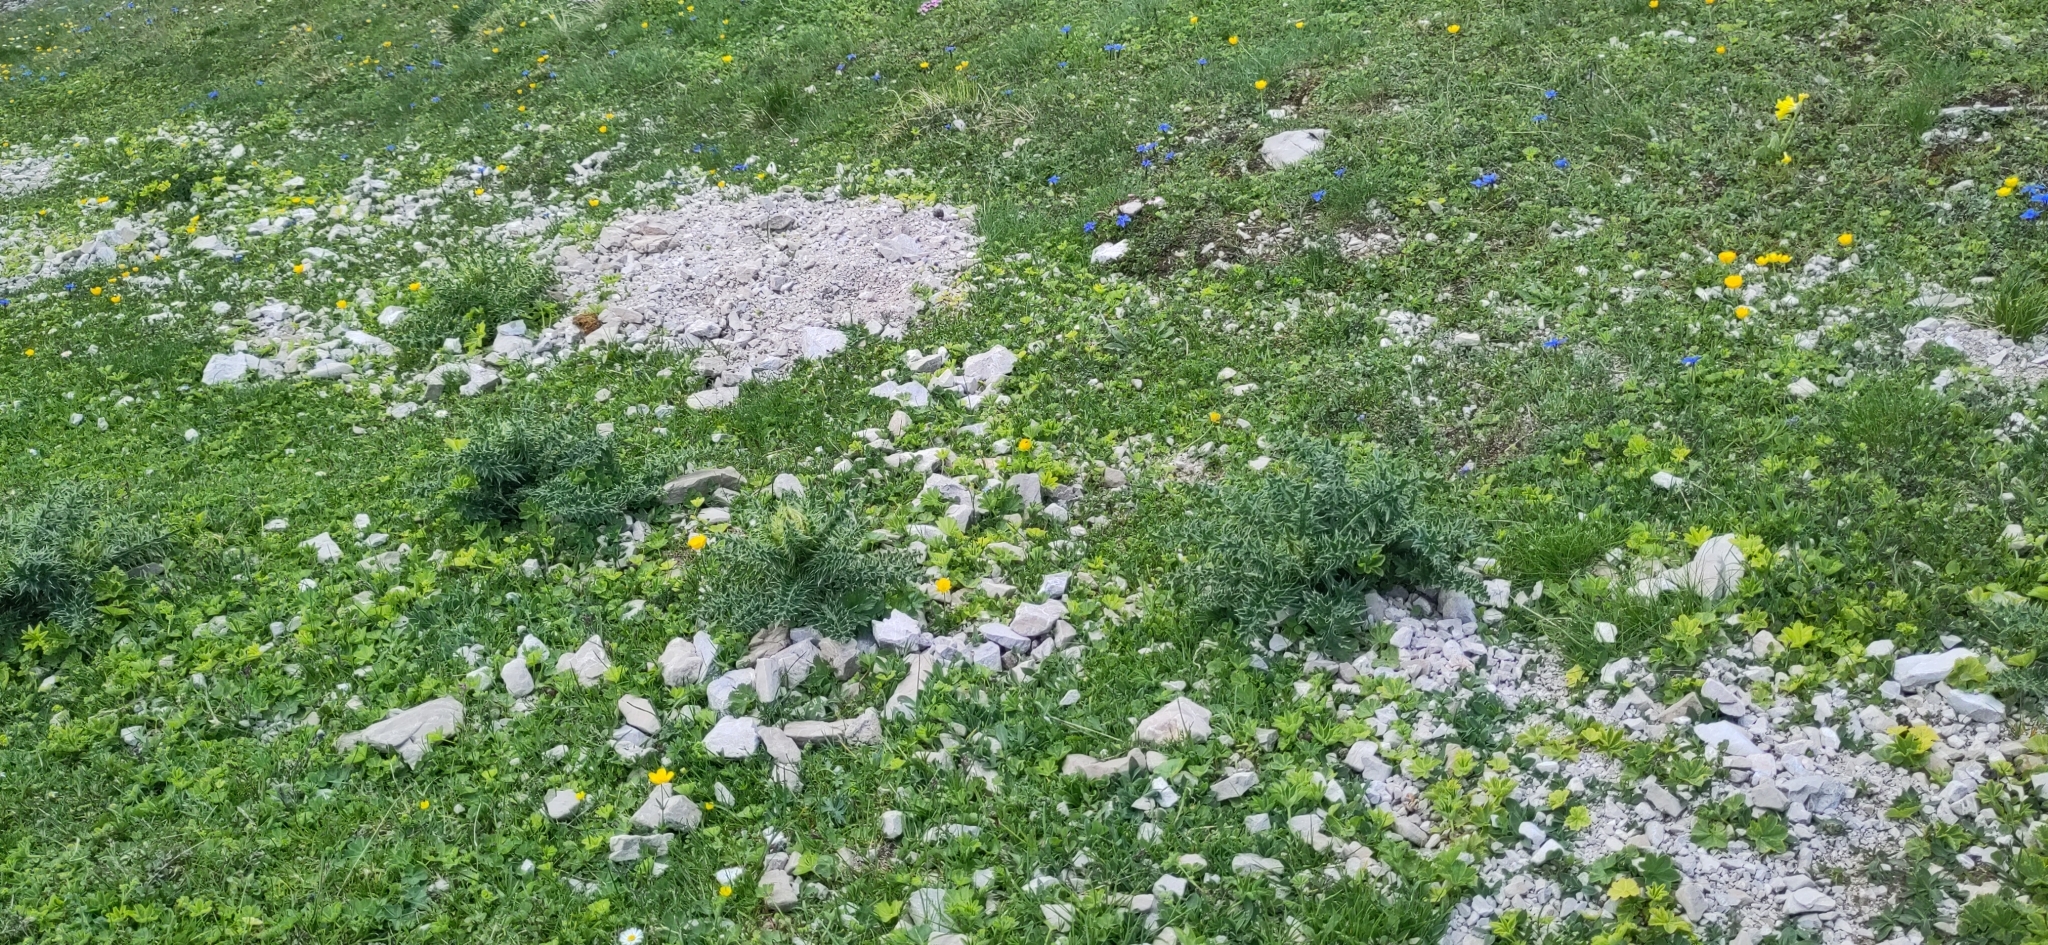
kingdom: Plantae
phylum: Tracheophyta
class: Magnoliopsida
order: Asterales
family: Asteraceae
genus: Cirsium
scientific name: Cirsium spinosissimum
